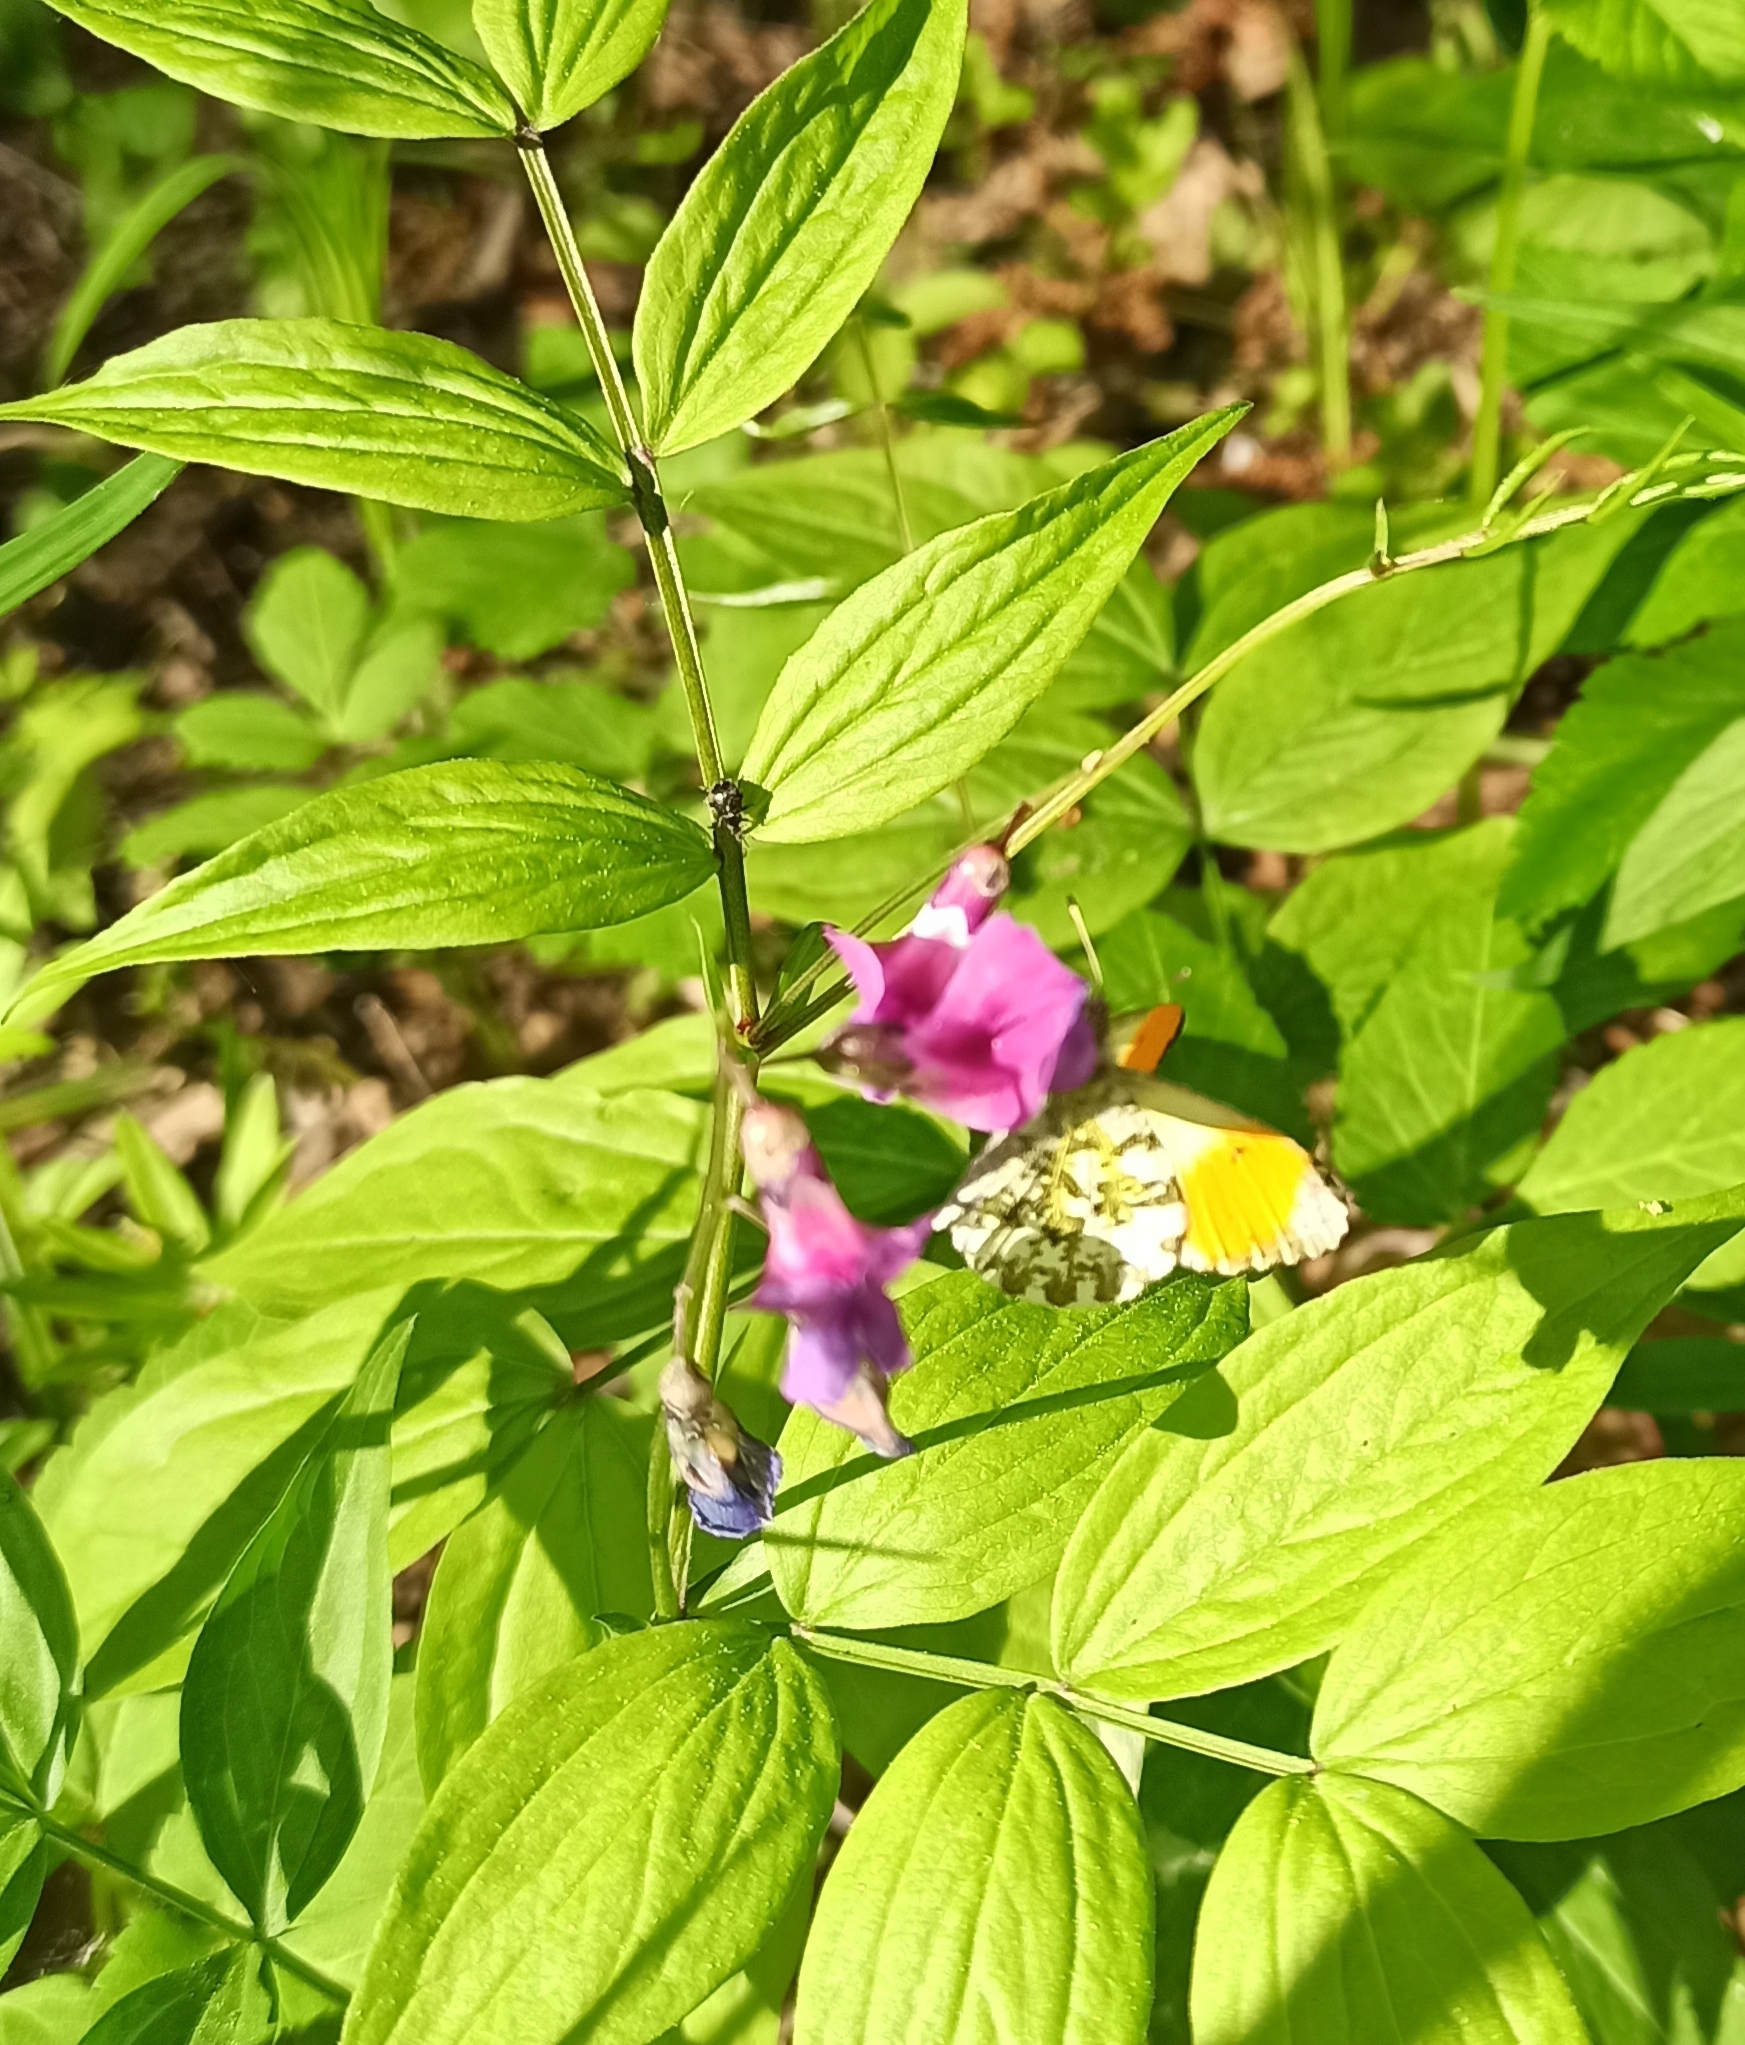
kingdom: Animalia
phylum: Arthropoda
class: Insecta
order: Lepidoptera
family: Pieridae
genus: Anthocharis
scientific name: Anthocharis cardamines
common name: Orange-tip
